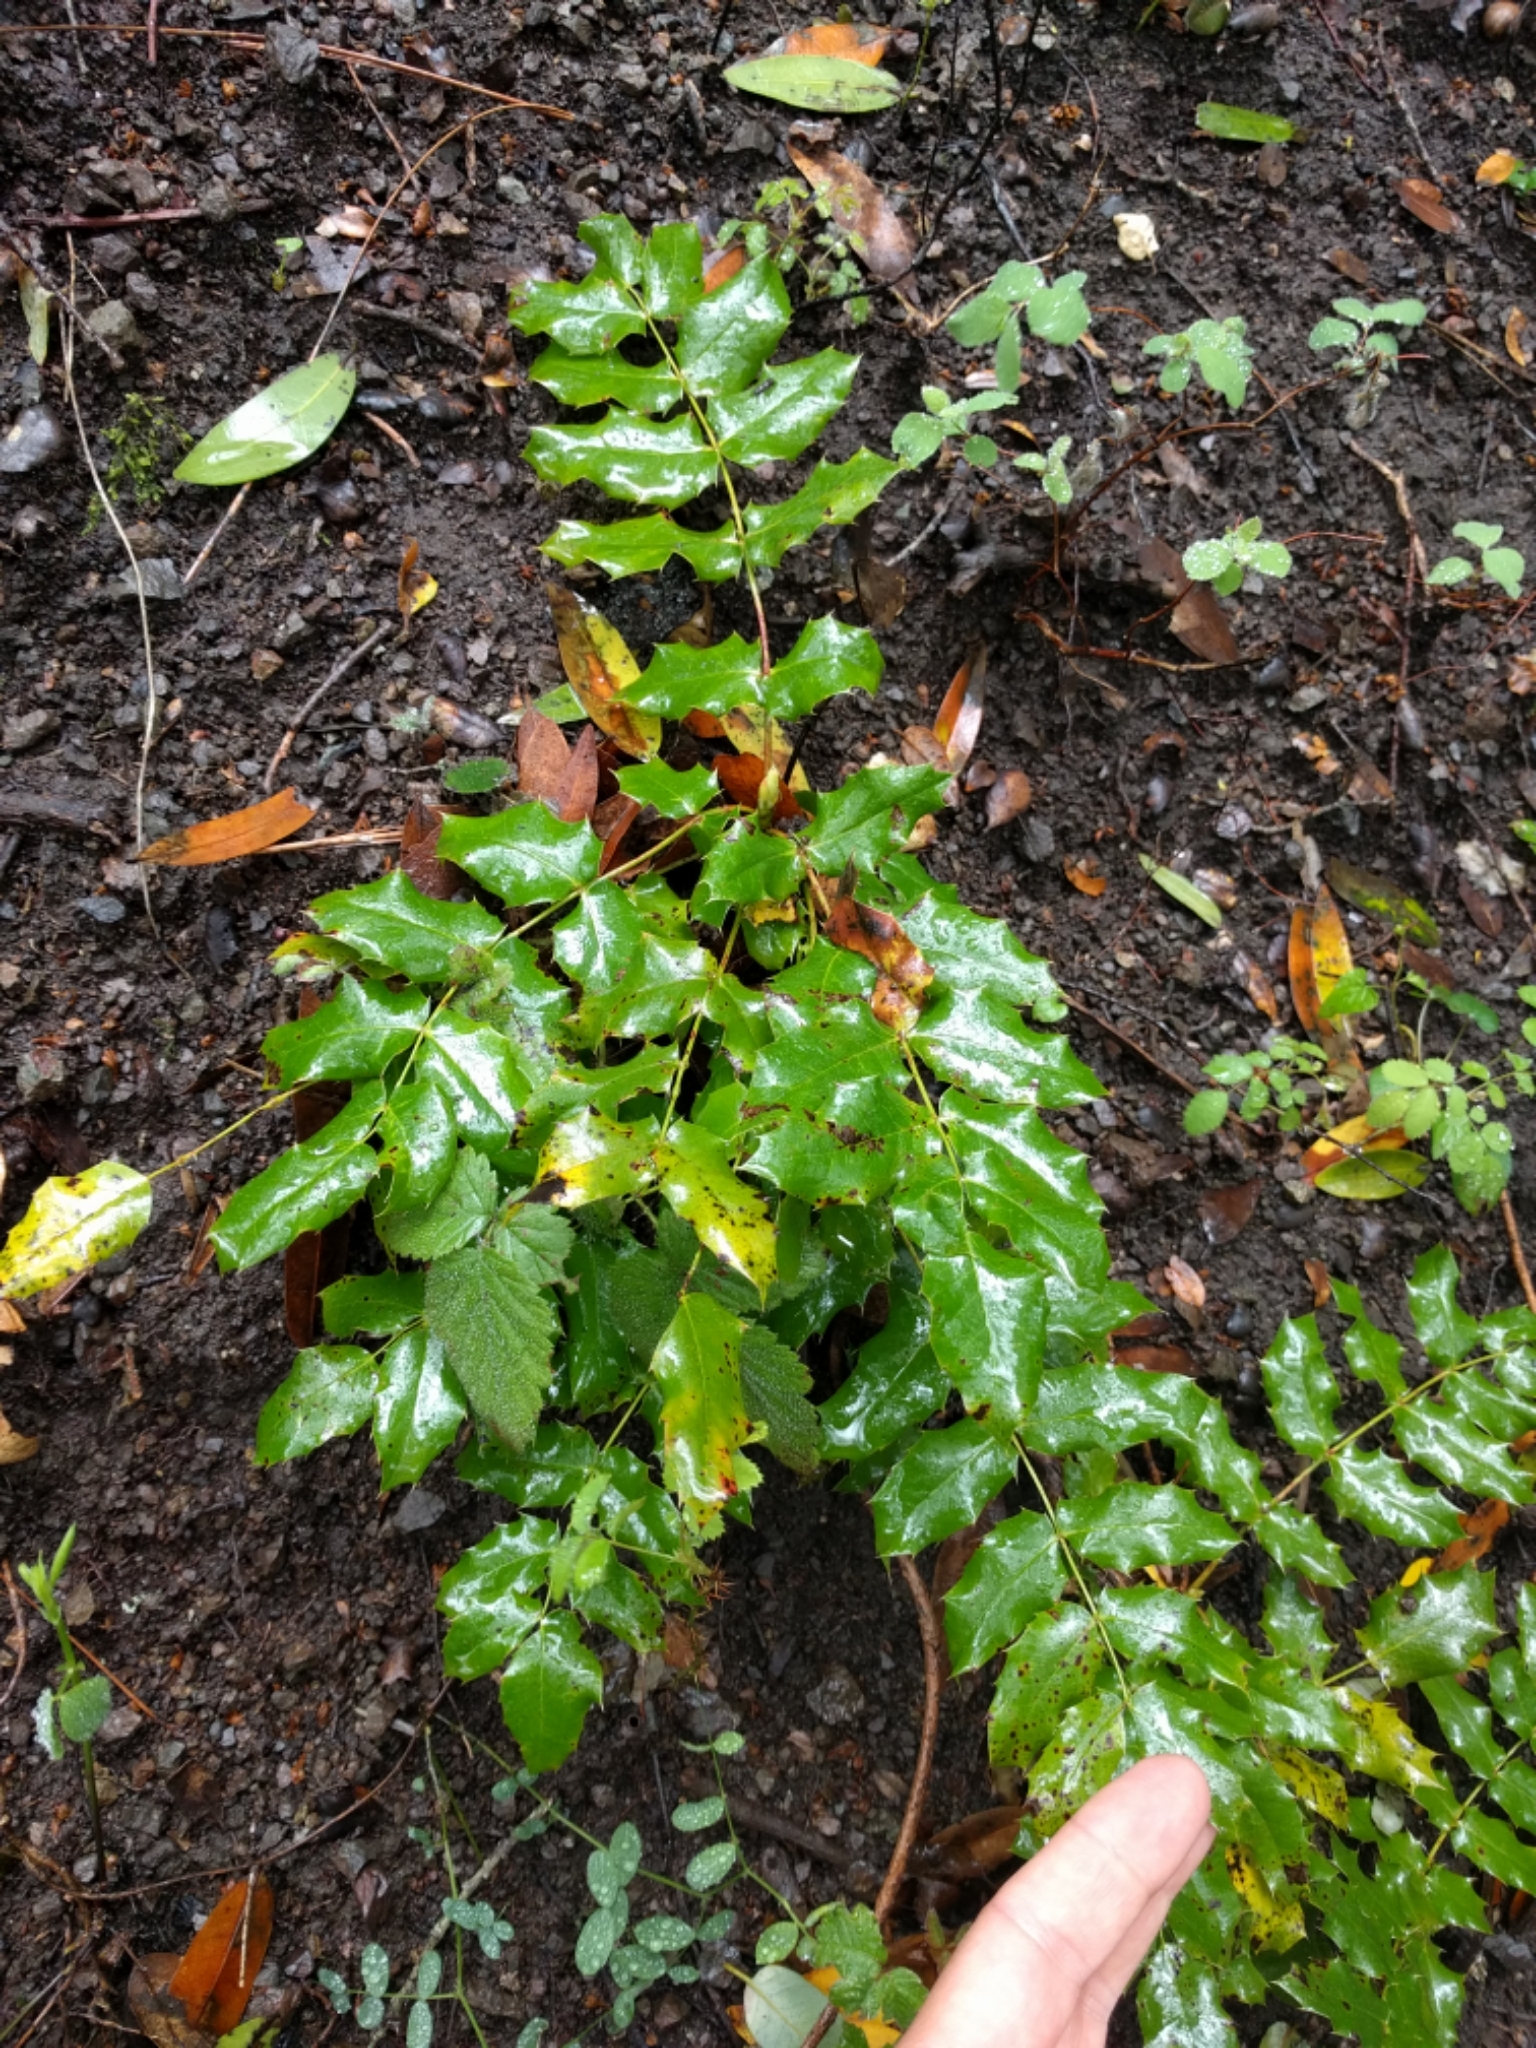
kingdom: Plantae
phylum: Tracheophyta
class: Magnoliopsida
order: Ranunculales
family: Berberidaceae
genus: Mahonia
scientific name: Mahonia
